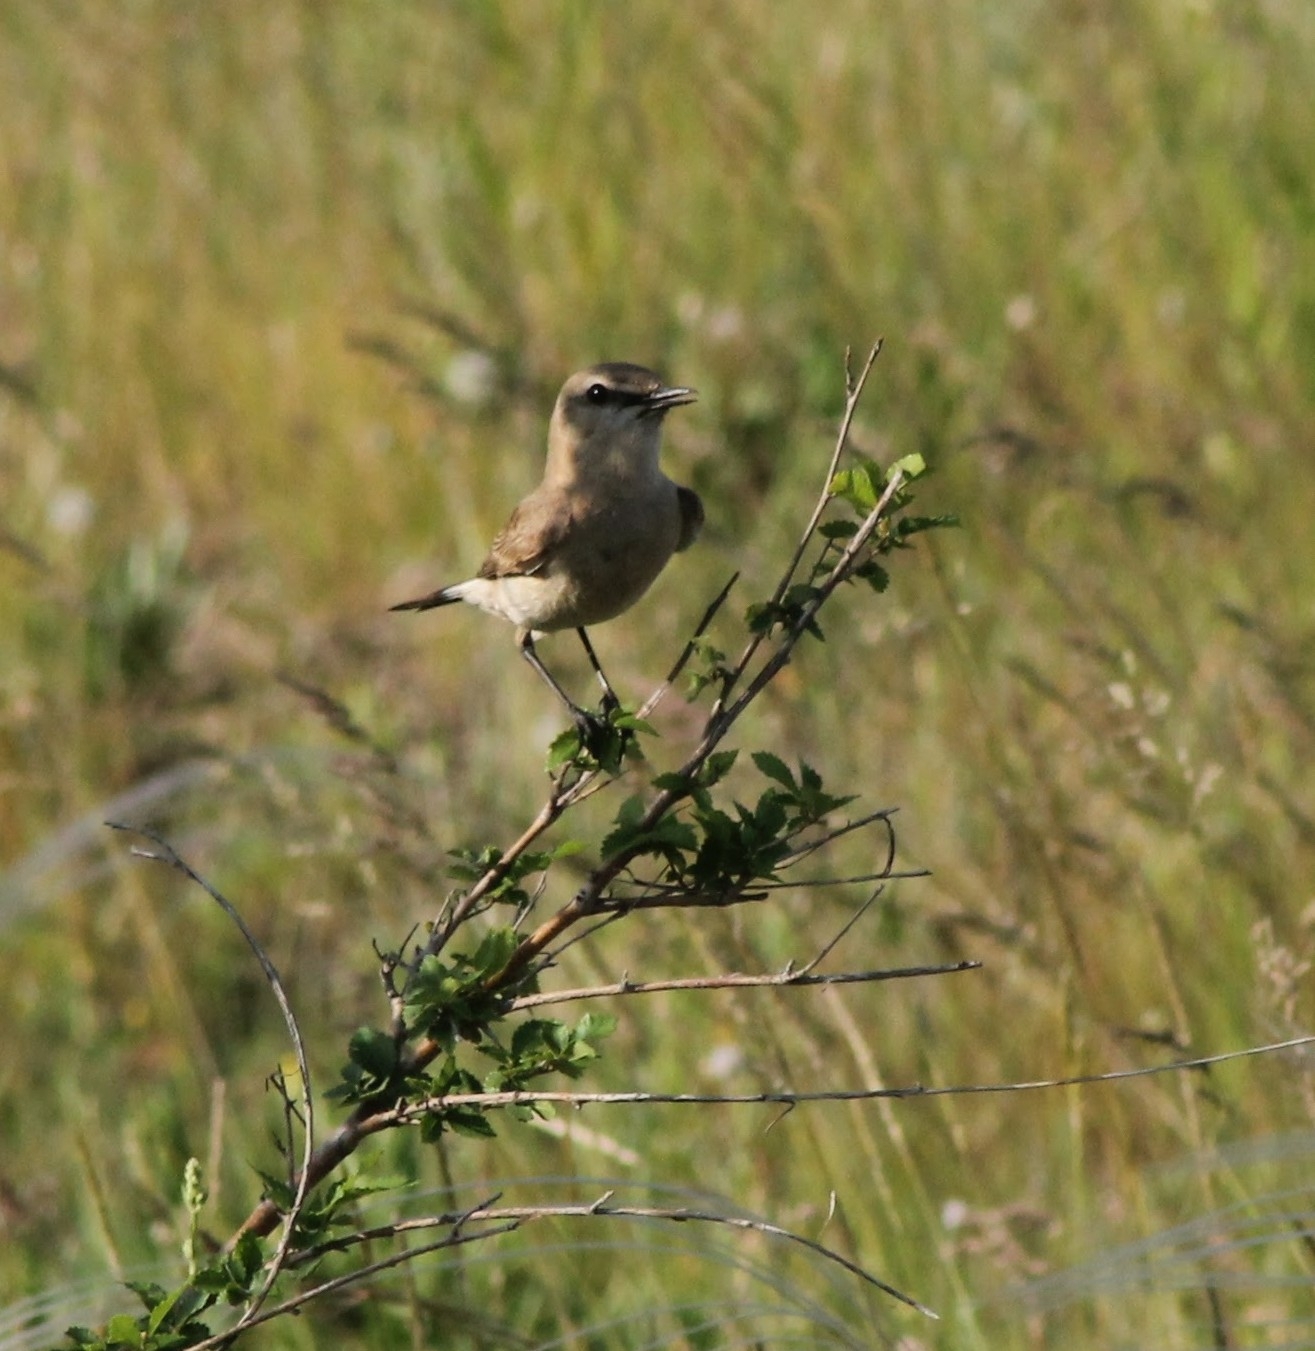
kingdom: Animalia
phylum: Chordata
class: Aves
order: Passeriformes
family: Muscicapidae
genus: Oenanthe
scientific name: Oenanthe isabellina
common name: Isabelline wheatear
